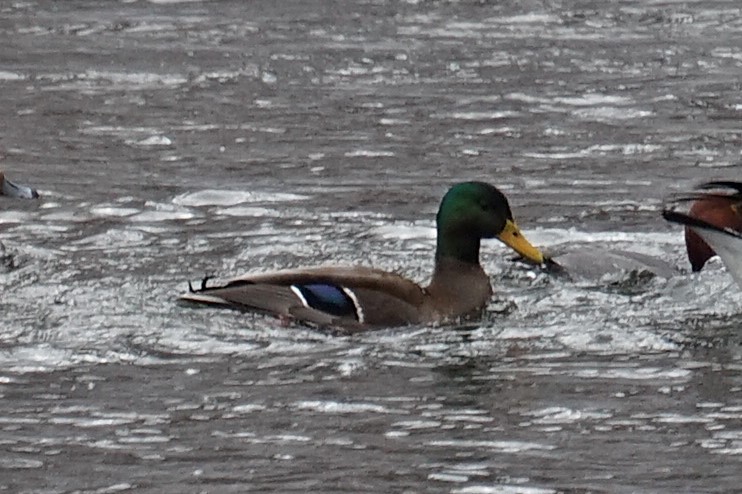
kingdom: Animalia
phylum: Chordata
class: Aves
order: Anseriformes
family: Anatidae
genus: Anas
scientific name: Anas platyrhynchos
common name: Mallard
